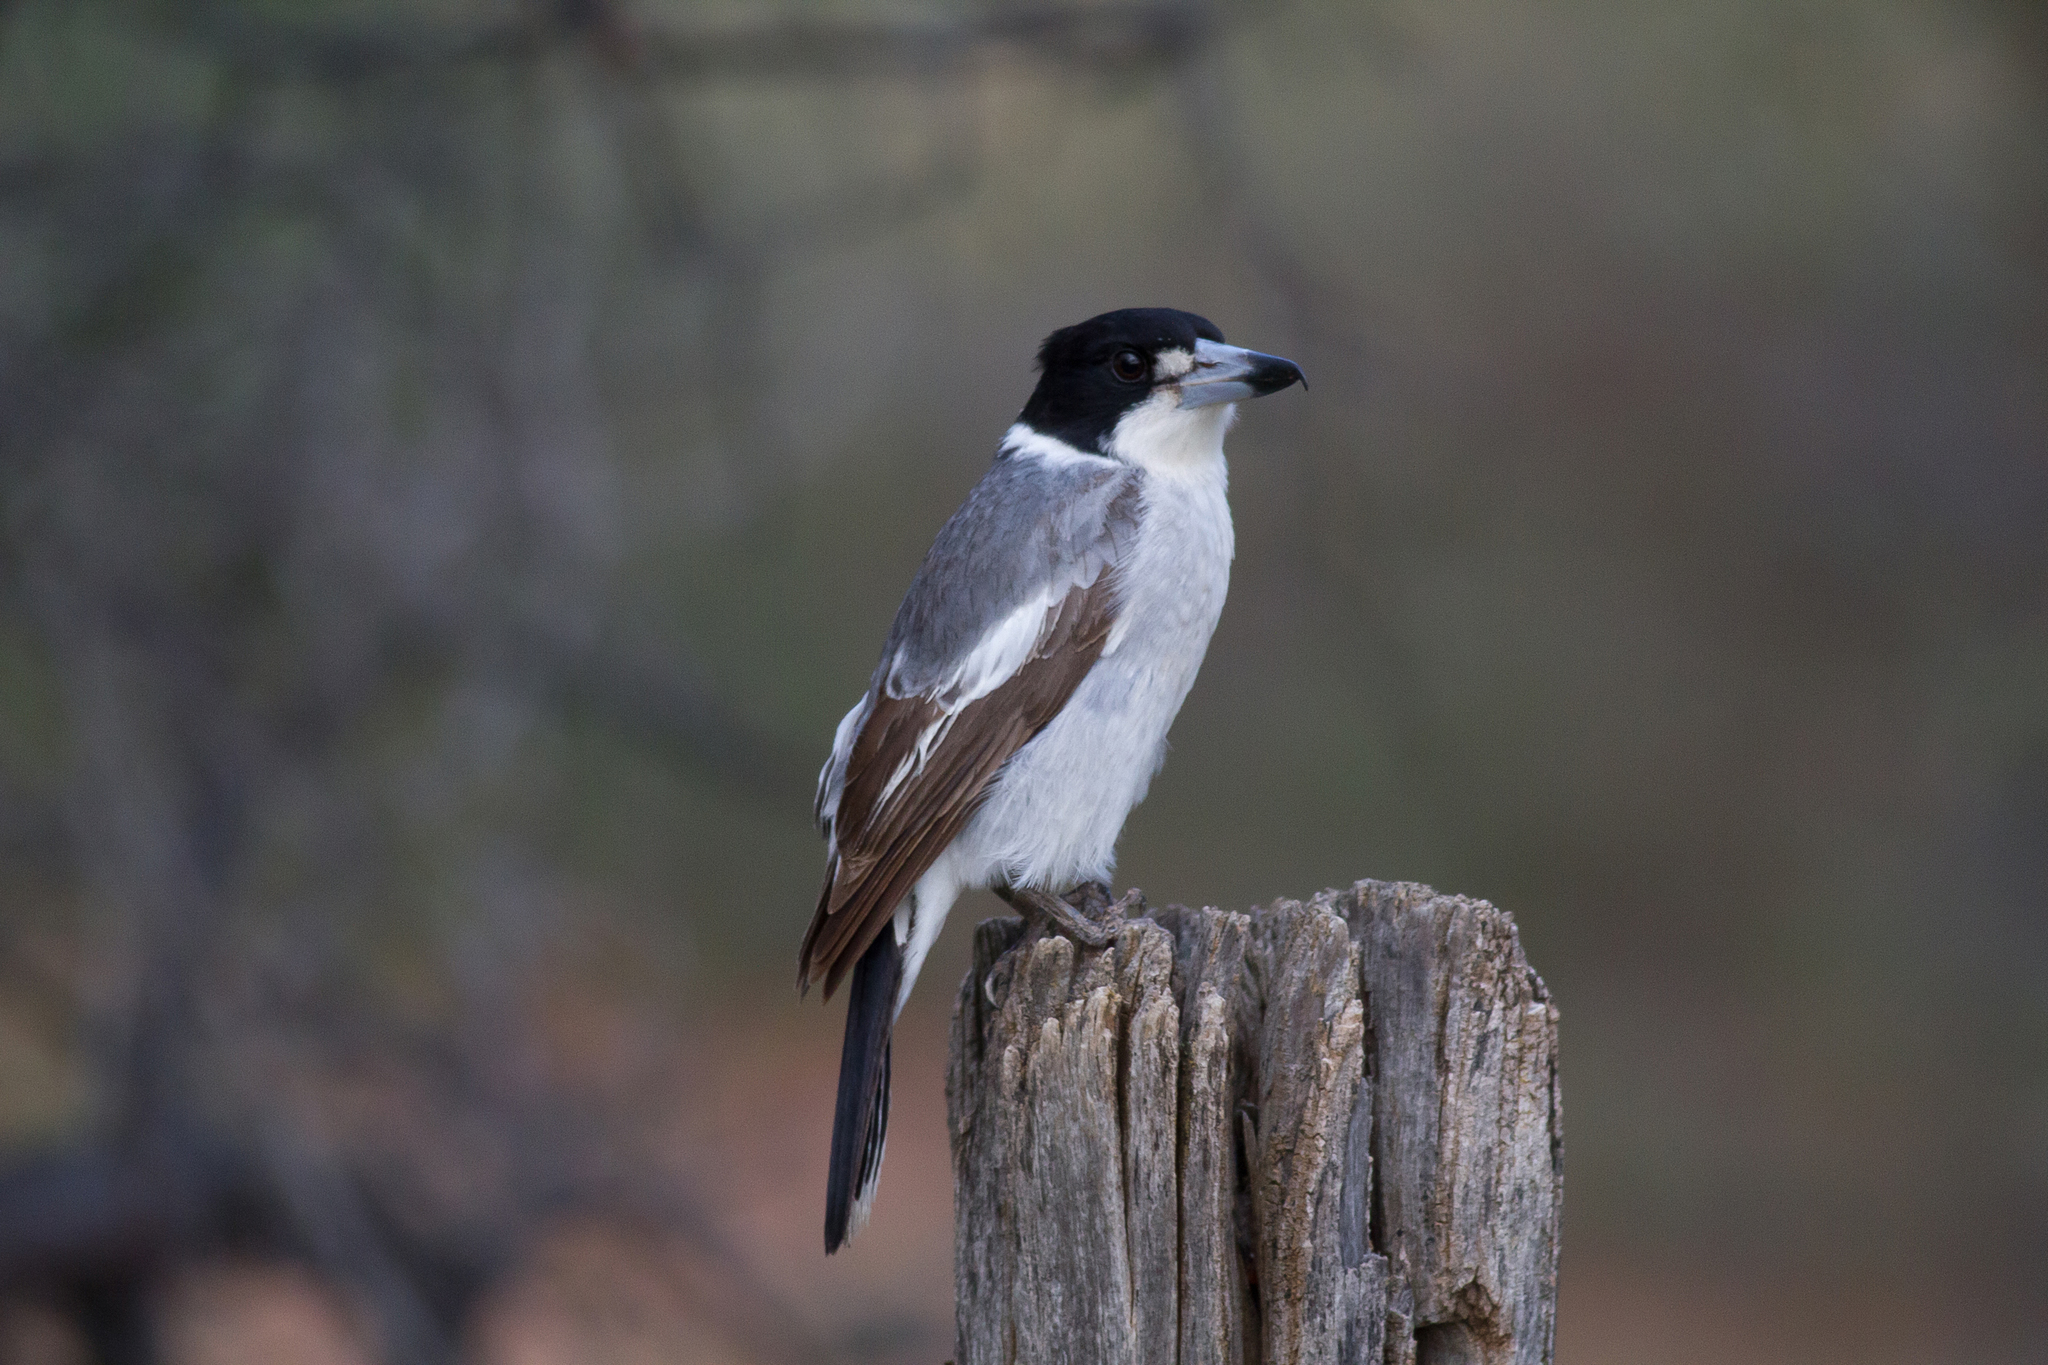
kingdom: Animalia
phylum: Chordata
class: Aves
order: Passeriformes
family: Cracticidae
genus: Cracticus
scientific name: Cracticus torquatus
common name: Grey butcherbird
